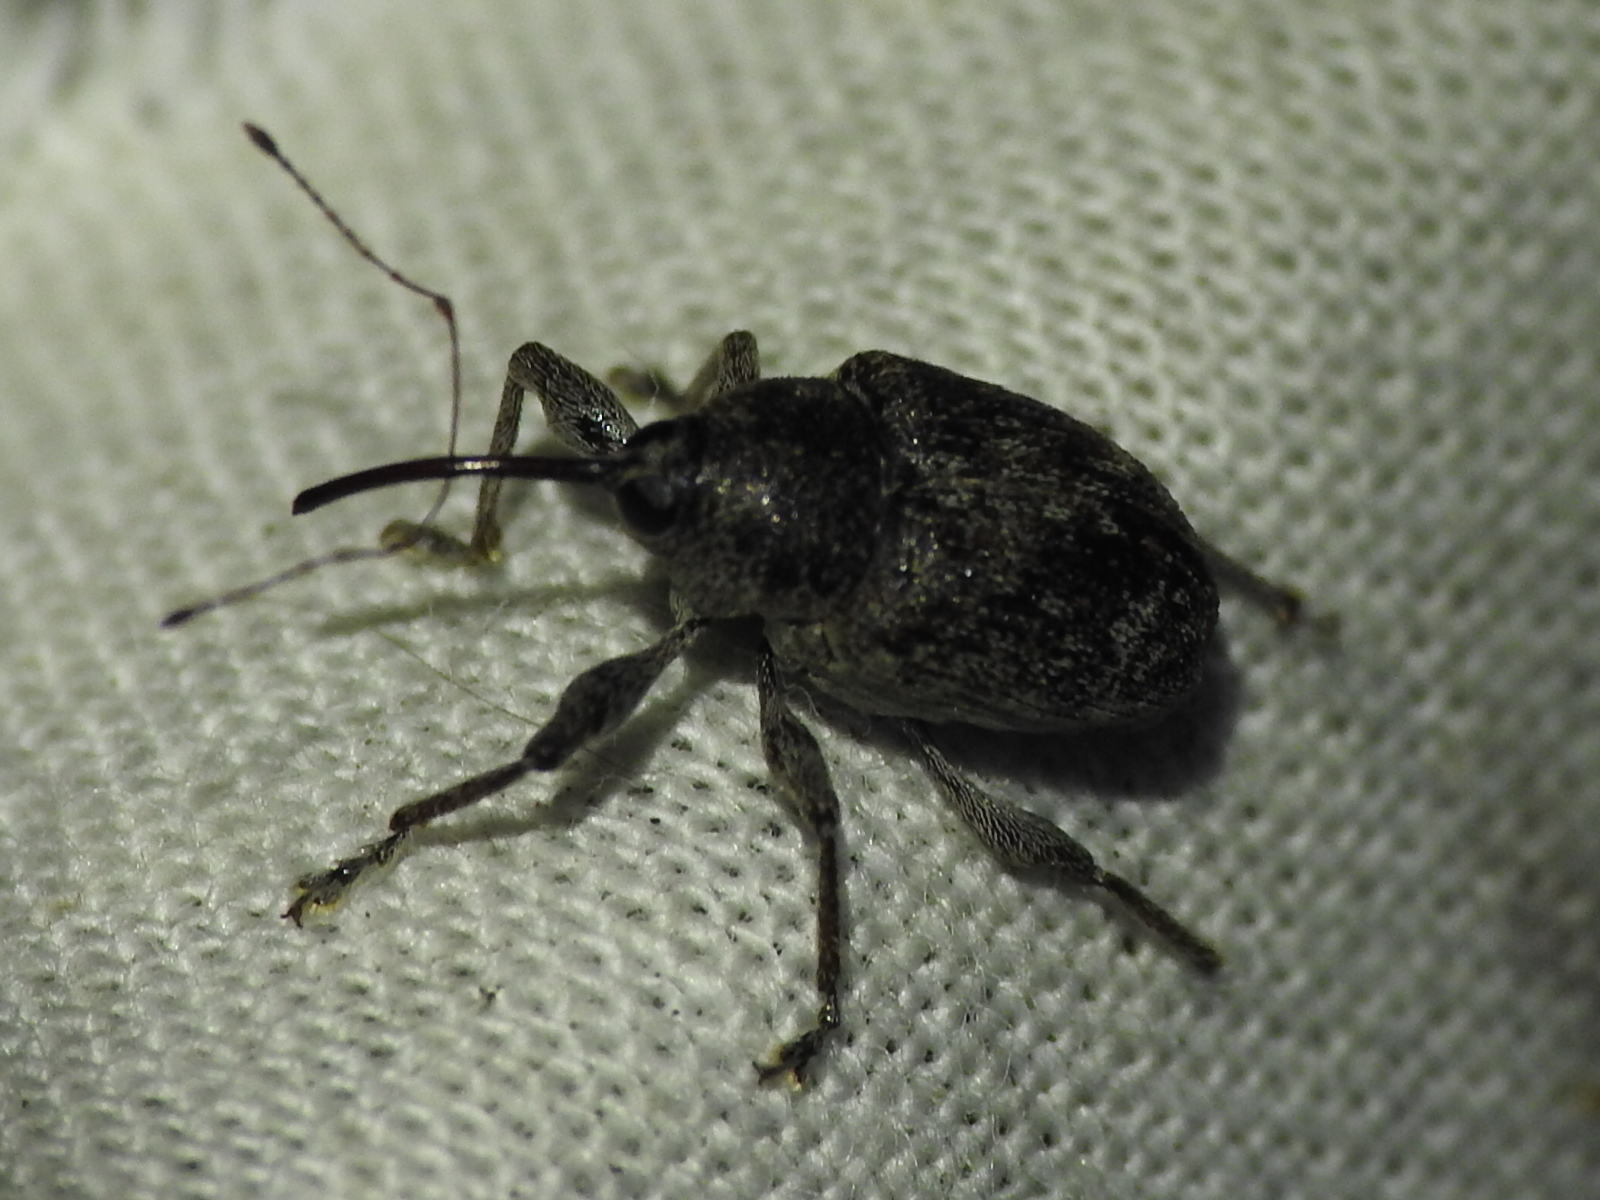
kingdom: Animalia
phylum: Arthropoda
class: Insecta
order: Coleoptera
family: Curculionidae
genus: Curculio
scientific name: Curculio
